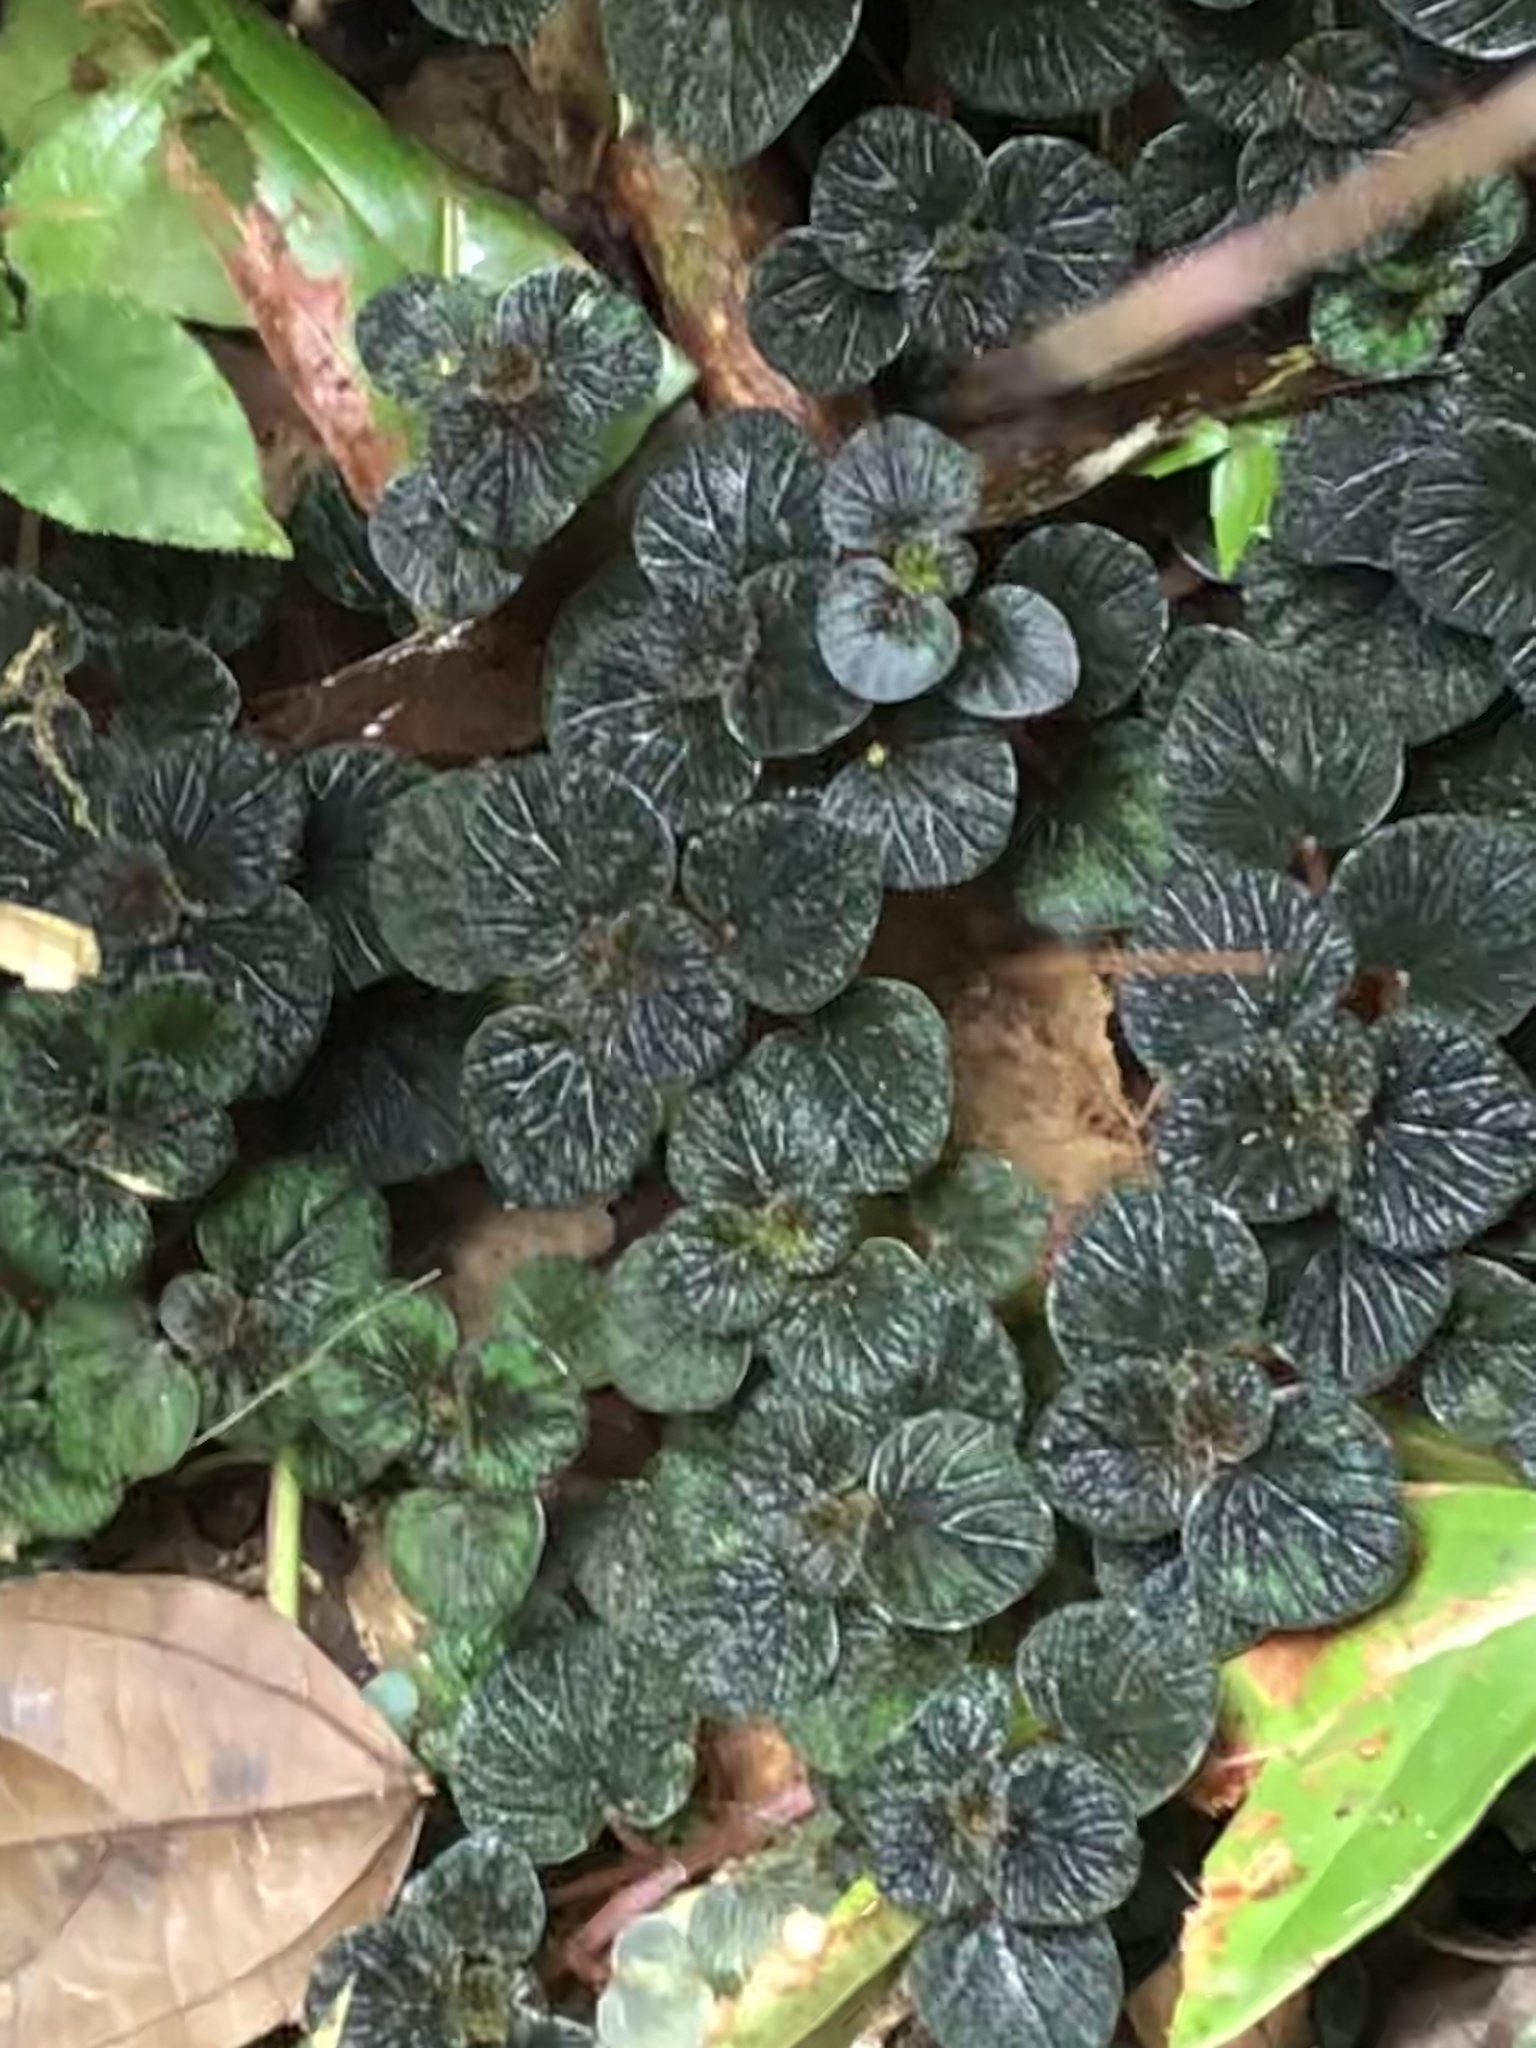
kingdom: Plantae
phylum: Tracheophyta
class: Magnoliopsida
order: Piperales
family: Piperaceae
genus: Peperomia
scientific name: Peperomia spruceana
